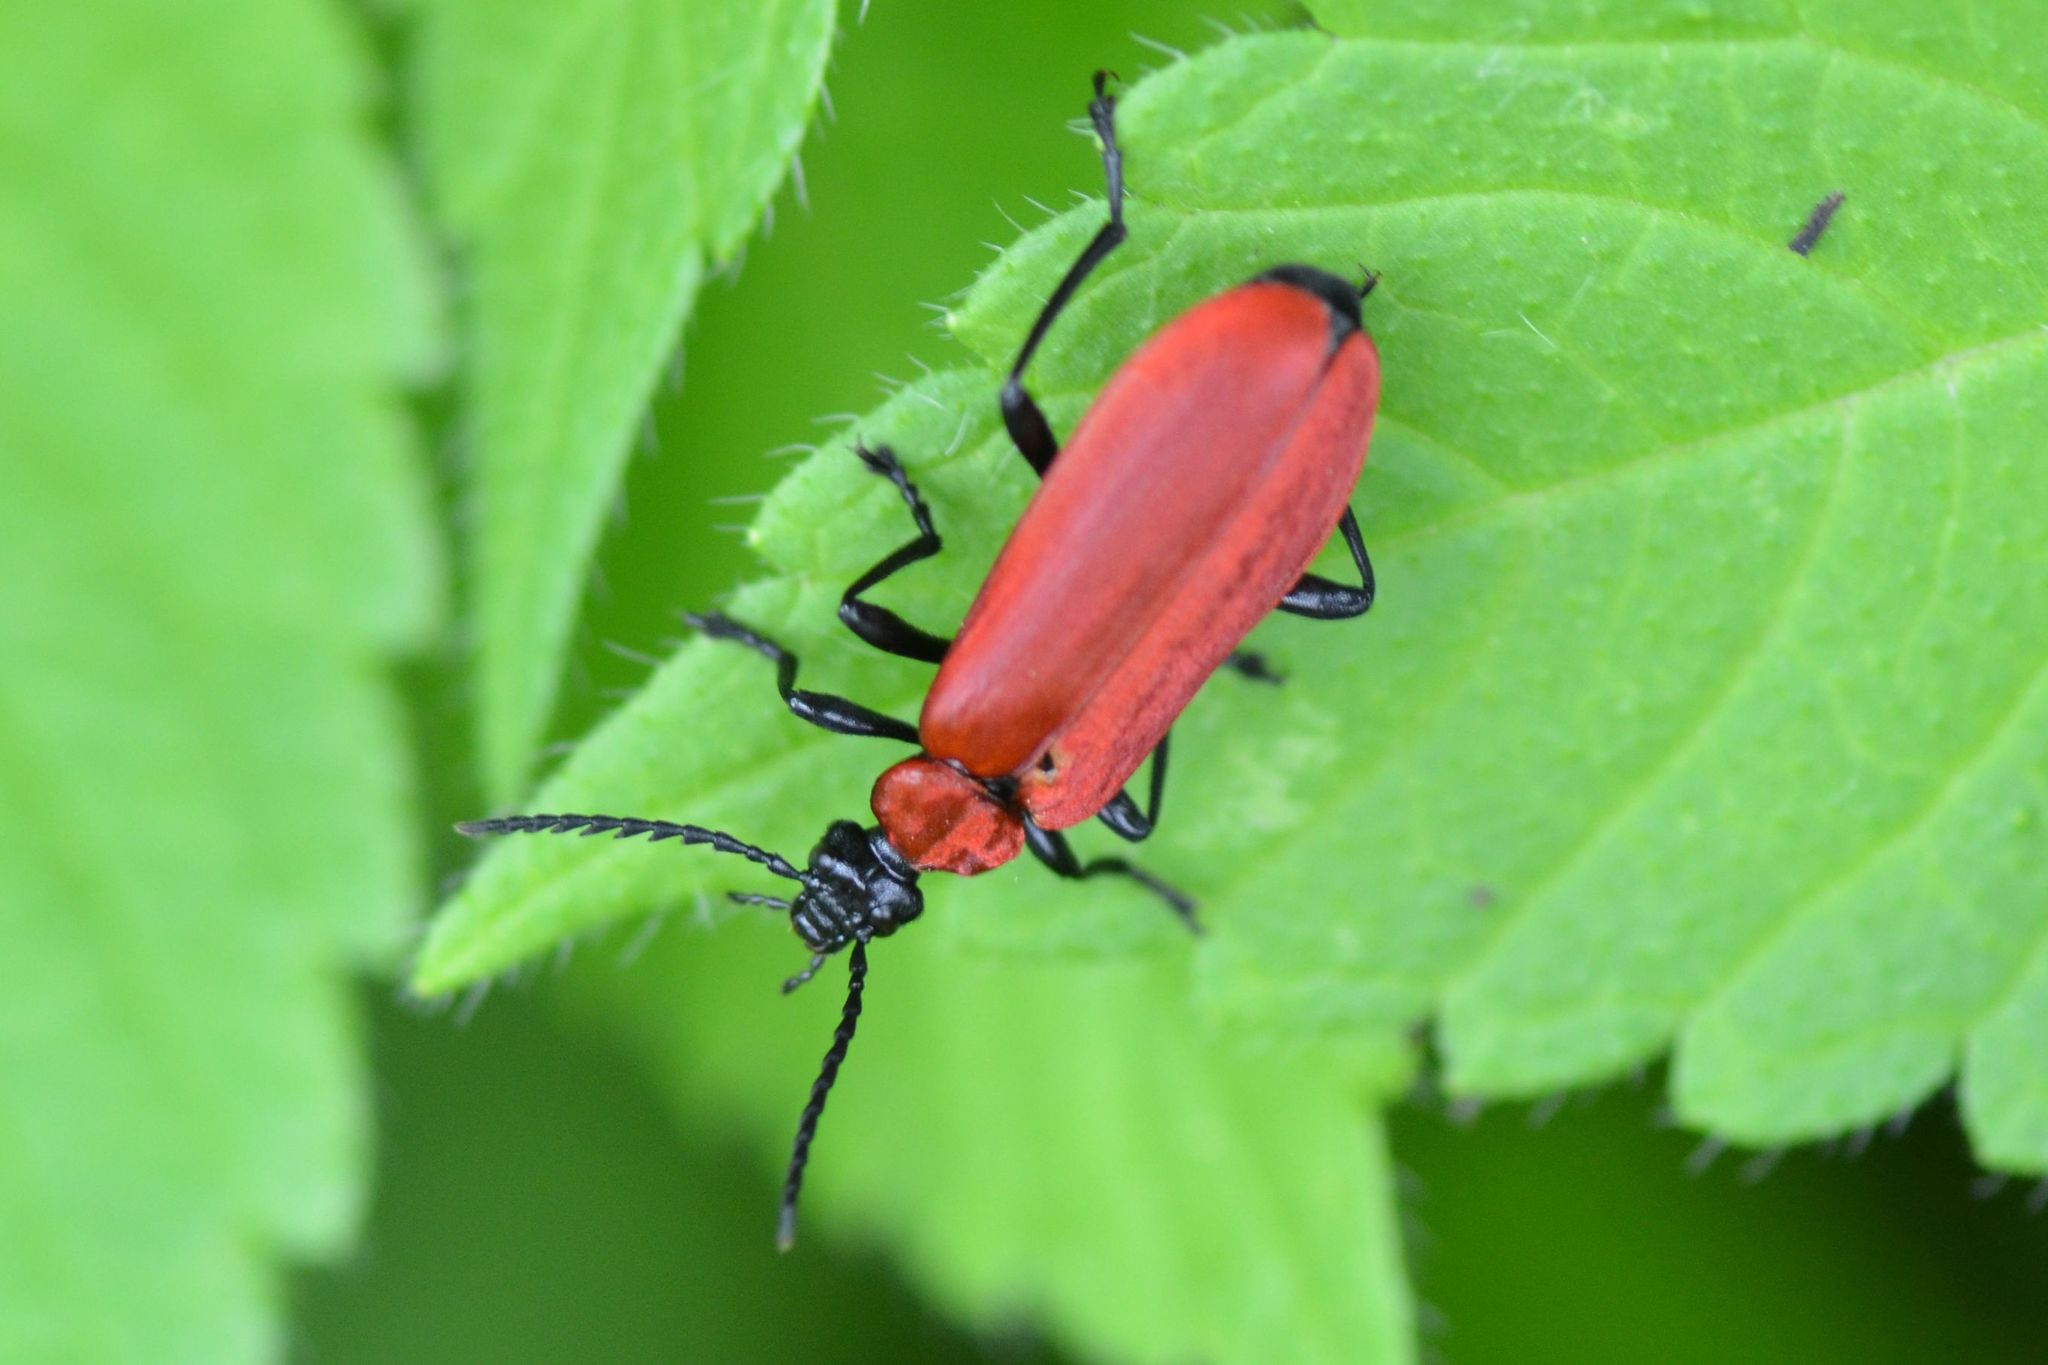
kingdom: Animalia
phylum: Arthropoda
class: Insecta
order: Coleoptera
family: Pyrochroidae
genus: Pyrochroa
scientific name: Pyrochroa coccinea
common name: Black-headed cardinal beetle
